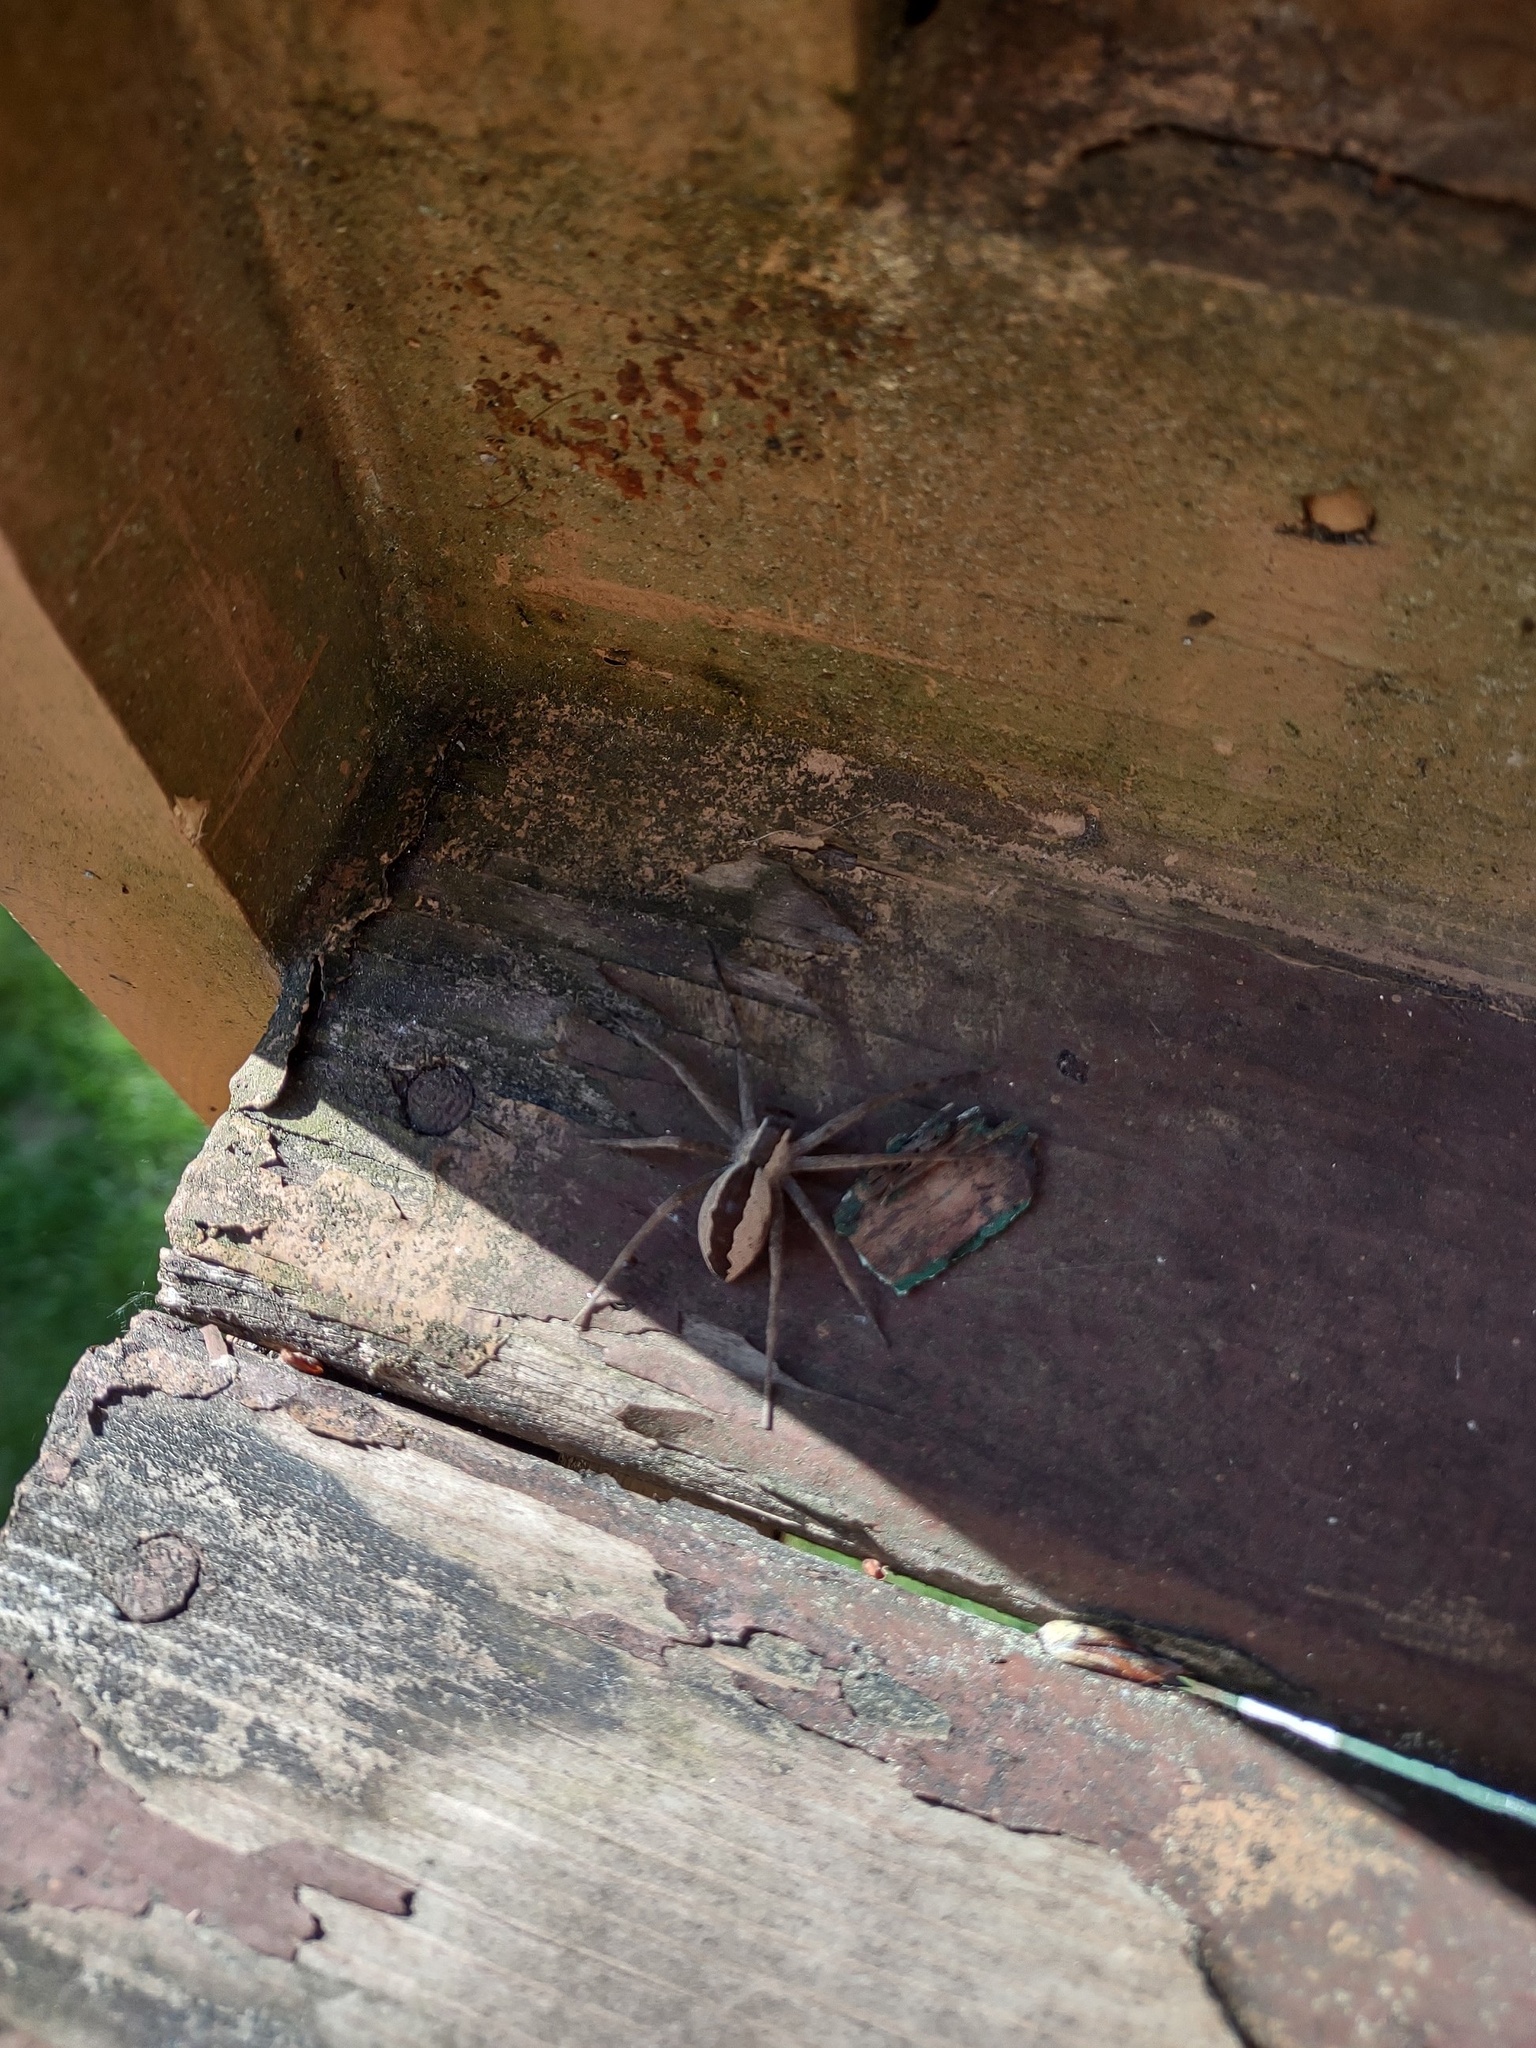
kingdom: Animalia
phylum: Arthropoda
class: Arachnida
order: Araneae
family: Pisauridae
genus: Pisaurina
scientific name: Pisaurina mira
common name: American nursery web spider
